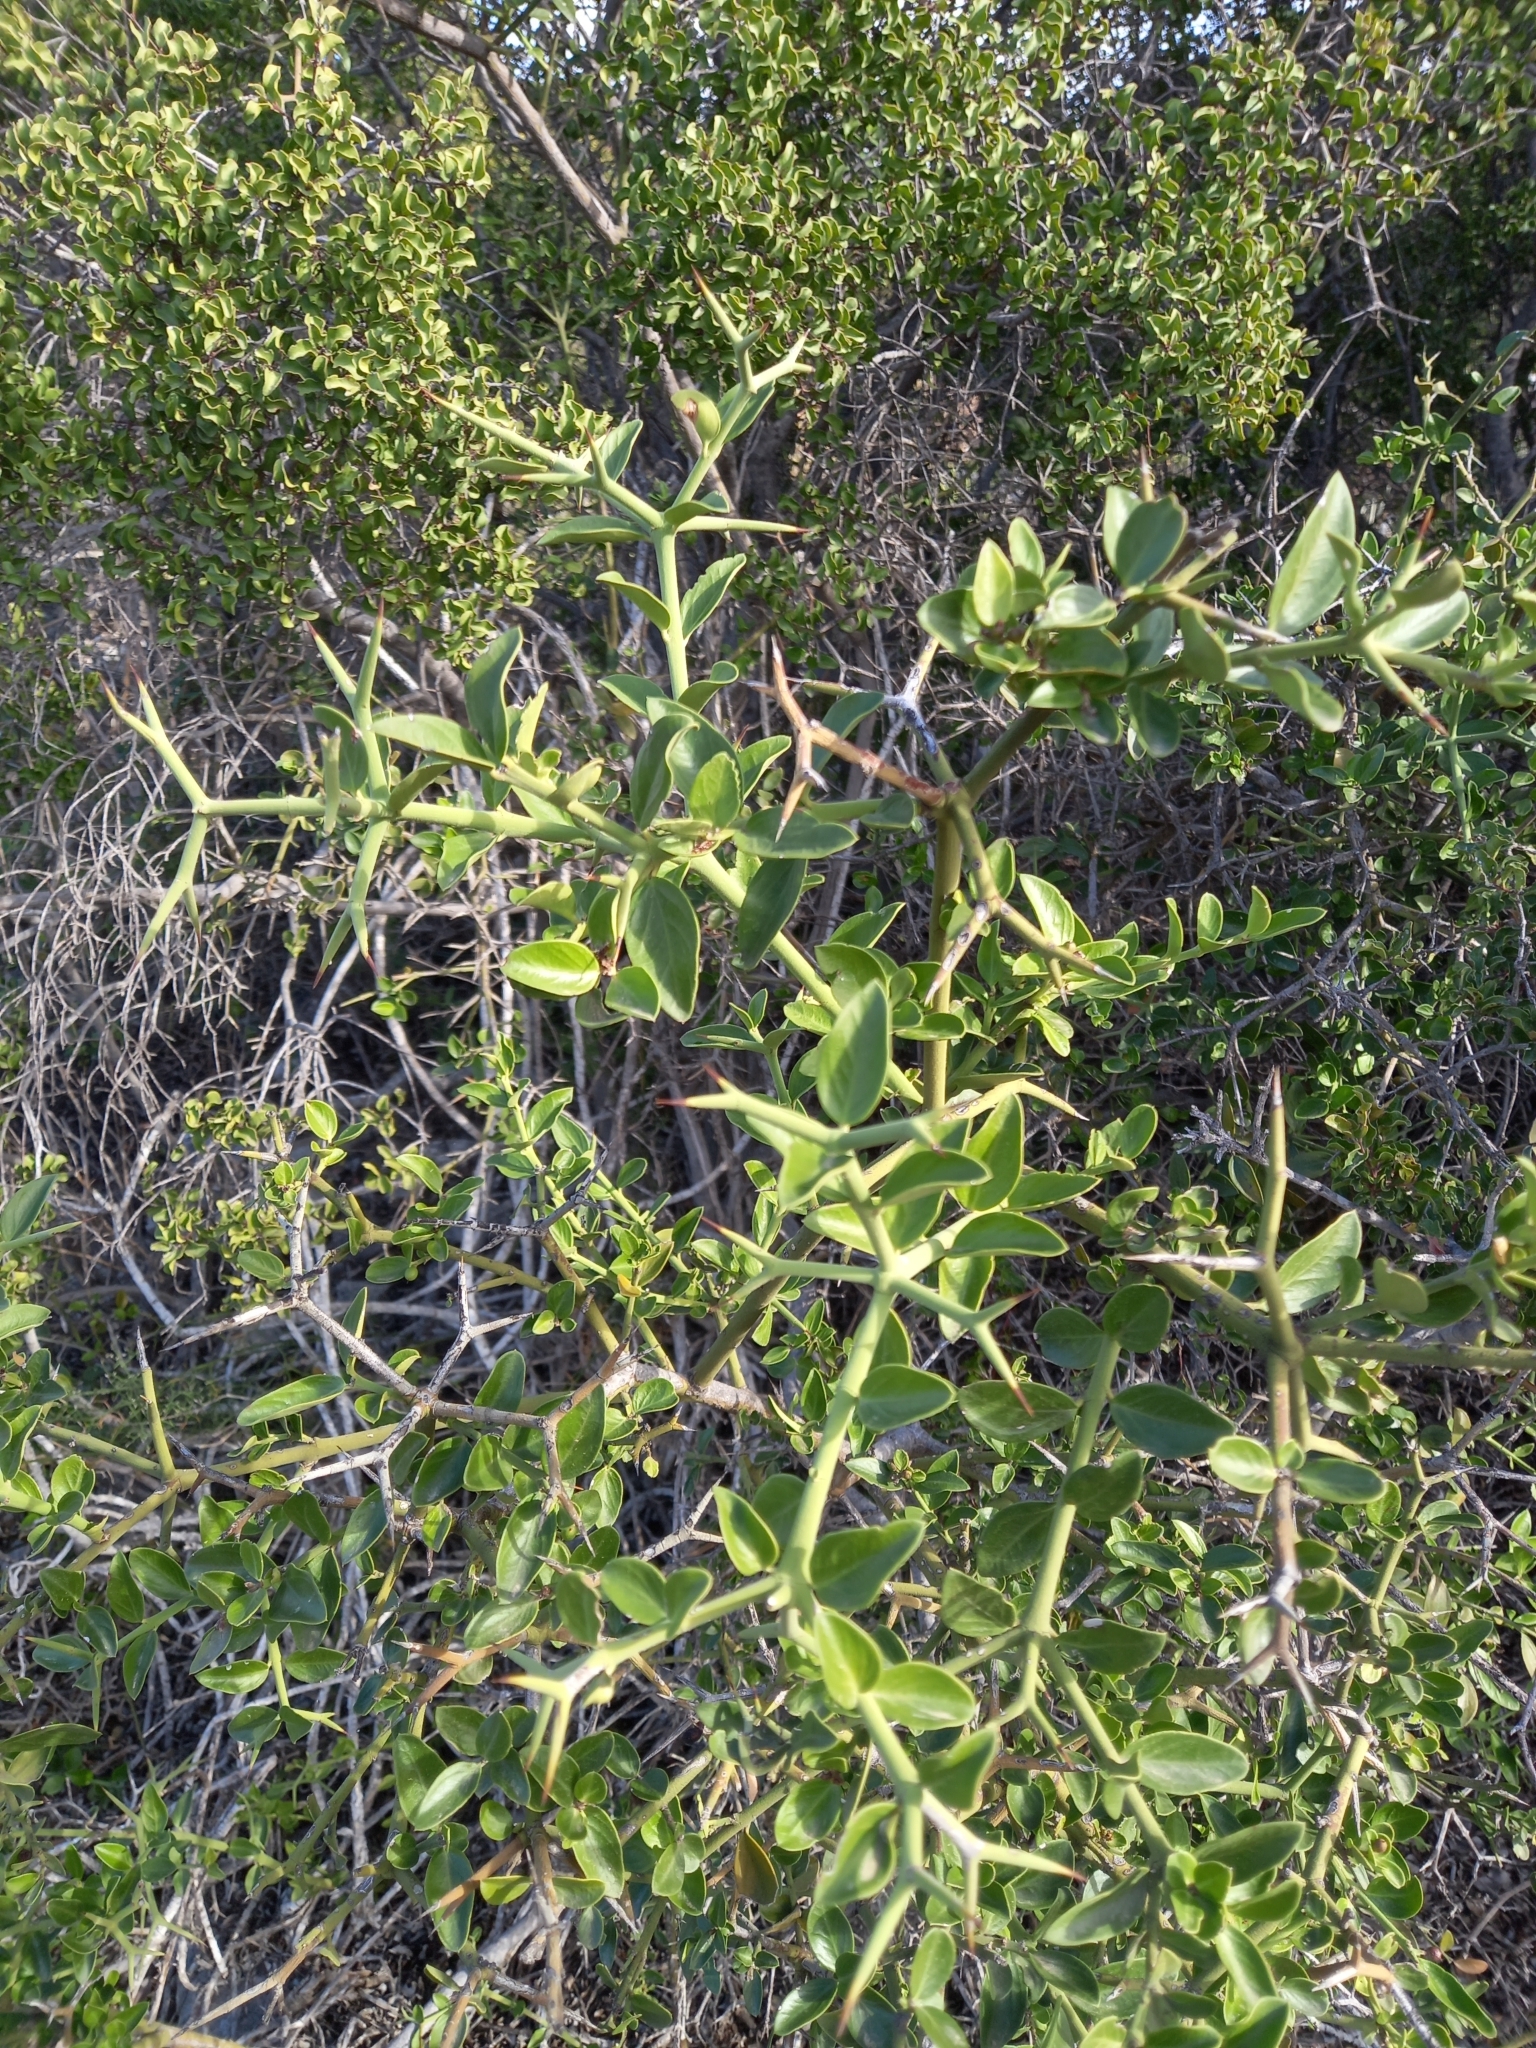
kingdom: Plantae
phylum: Tracheophyta
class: Magnoliopsida
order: Gentianales
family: Apocynaceae
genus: Carissa
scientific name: Carissa haematocarpa
